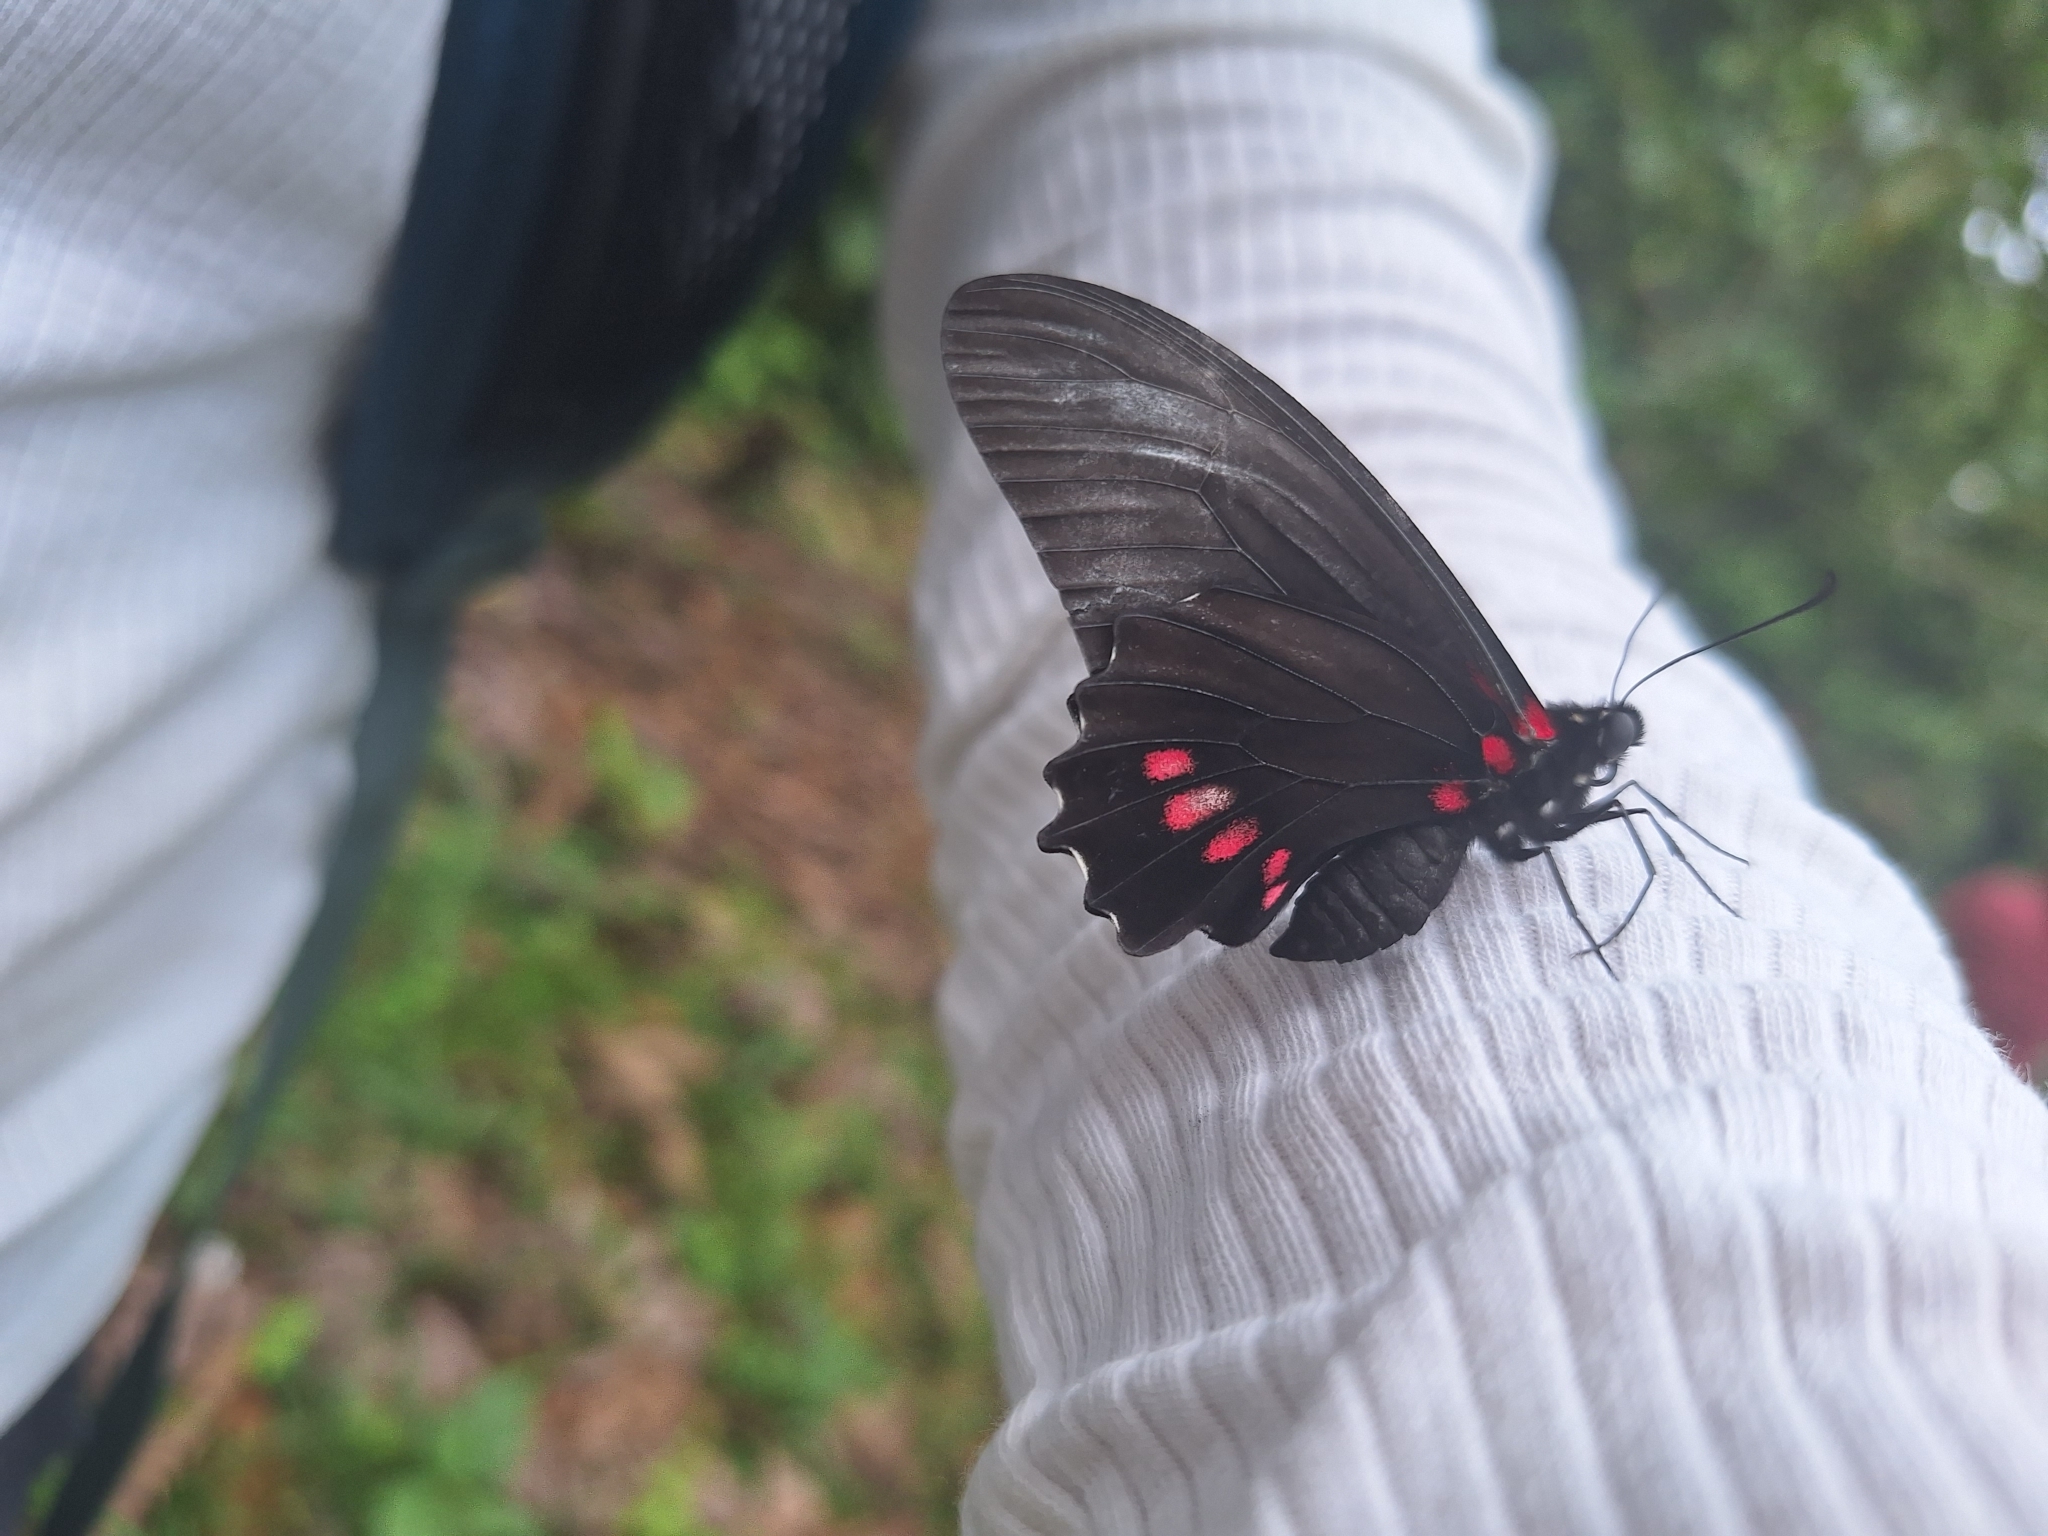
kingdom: Animalia
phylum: Arthropoda
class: Insecta
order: Lepidoptera
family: Papilionidae
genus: Mimoides
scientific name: Mimoides ariarathes
